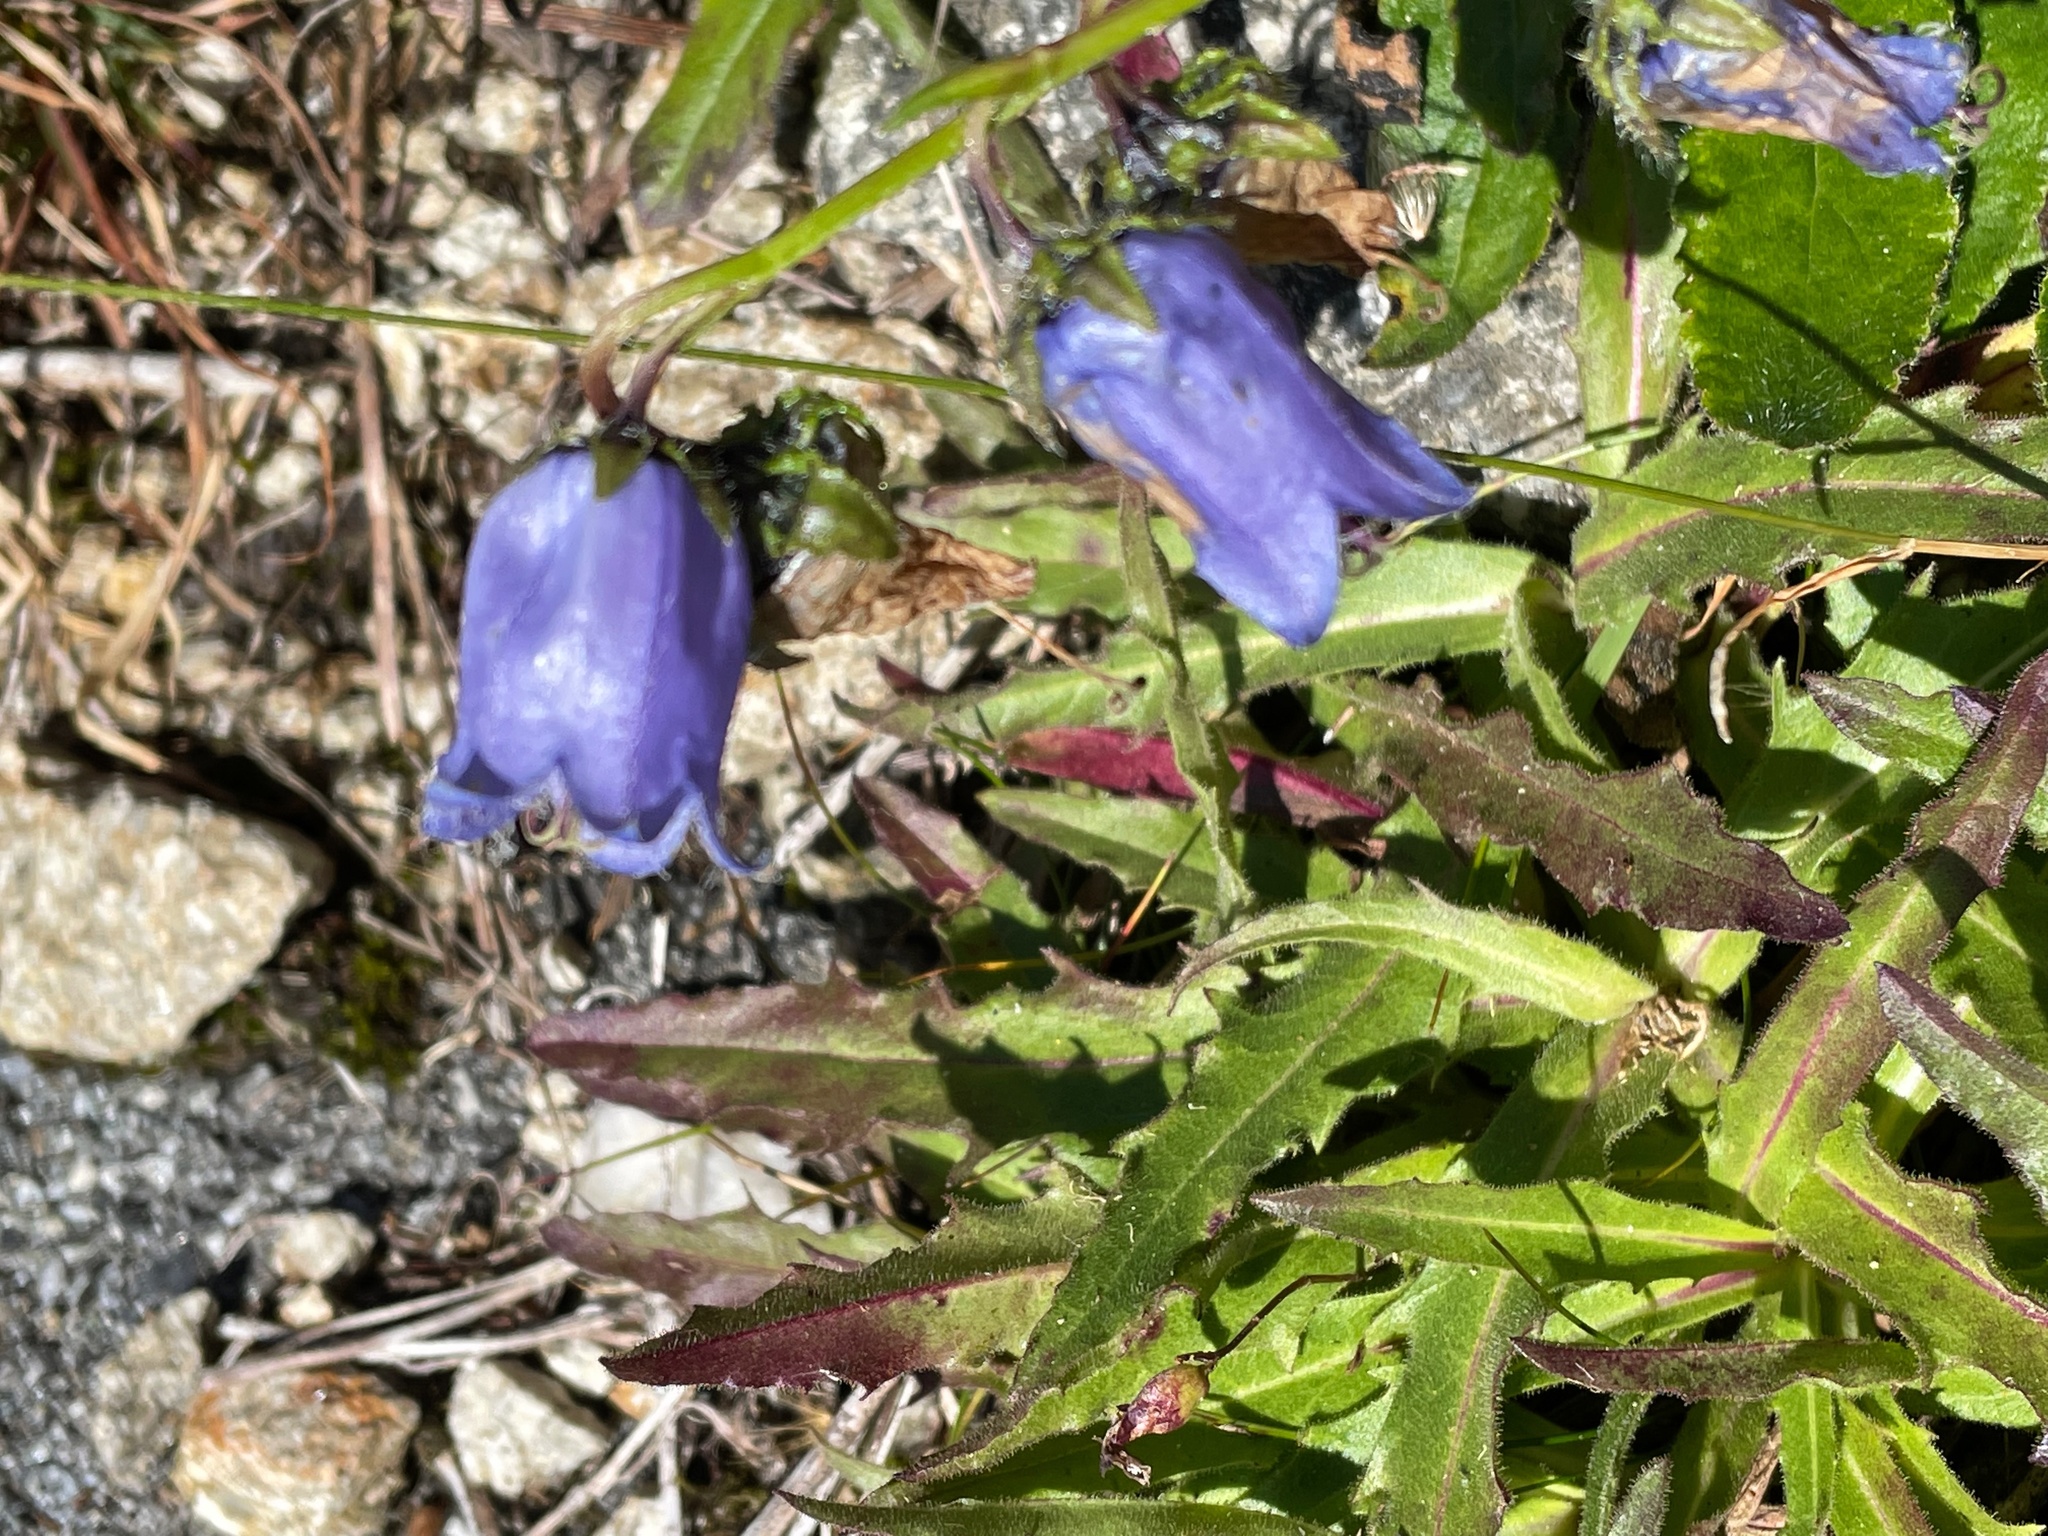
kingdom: Plantae
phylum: Tracheophyta
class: Magnoliopsida
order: Asterales
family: Campanulaceae
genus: Campanula
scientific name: Campanula barbata
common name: Bearded bellflower
